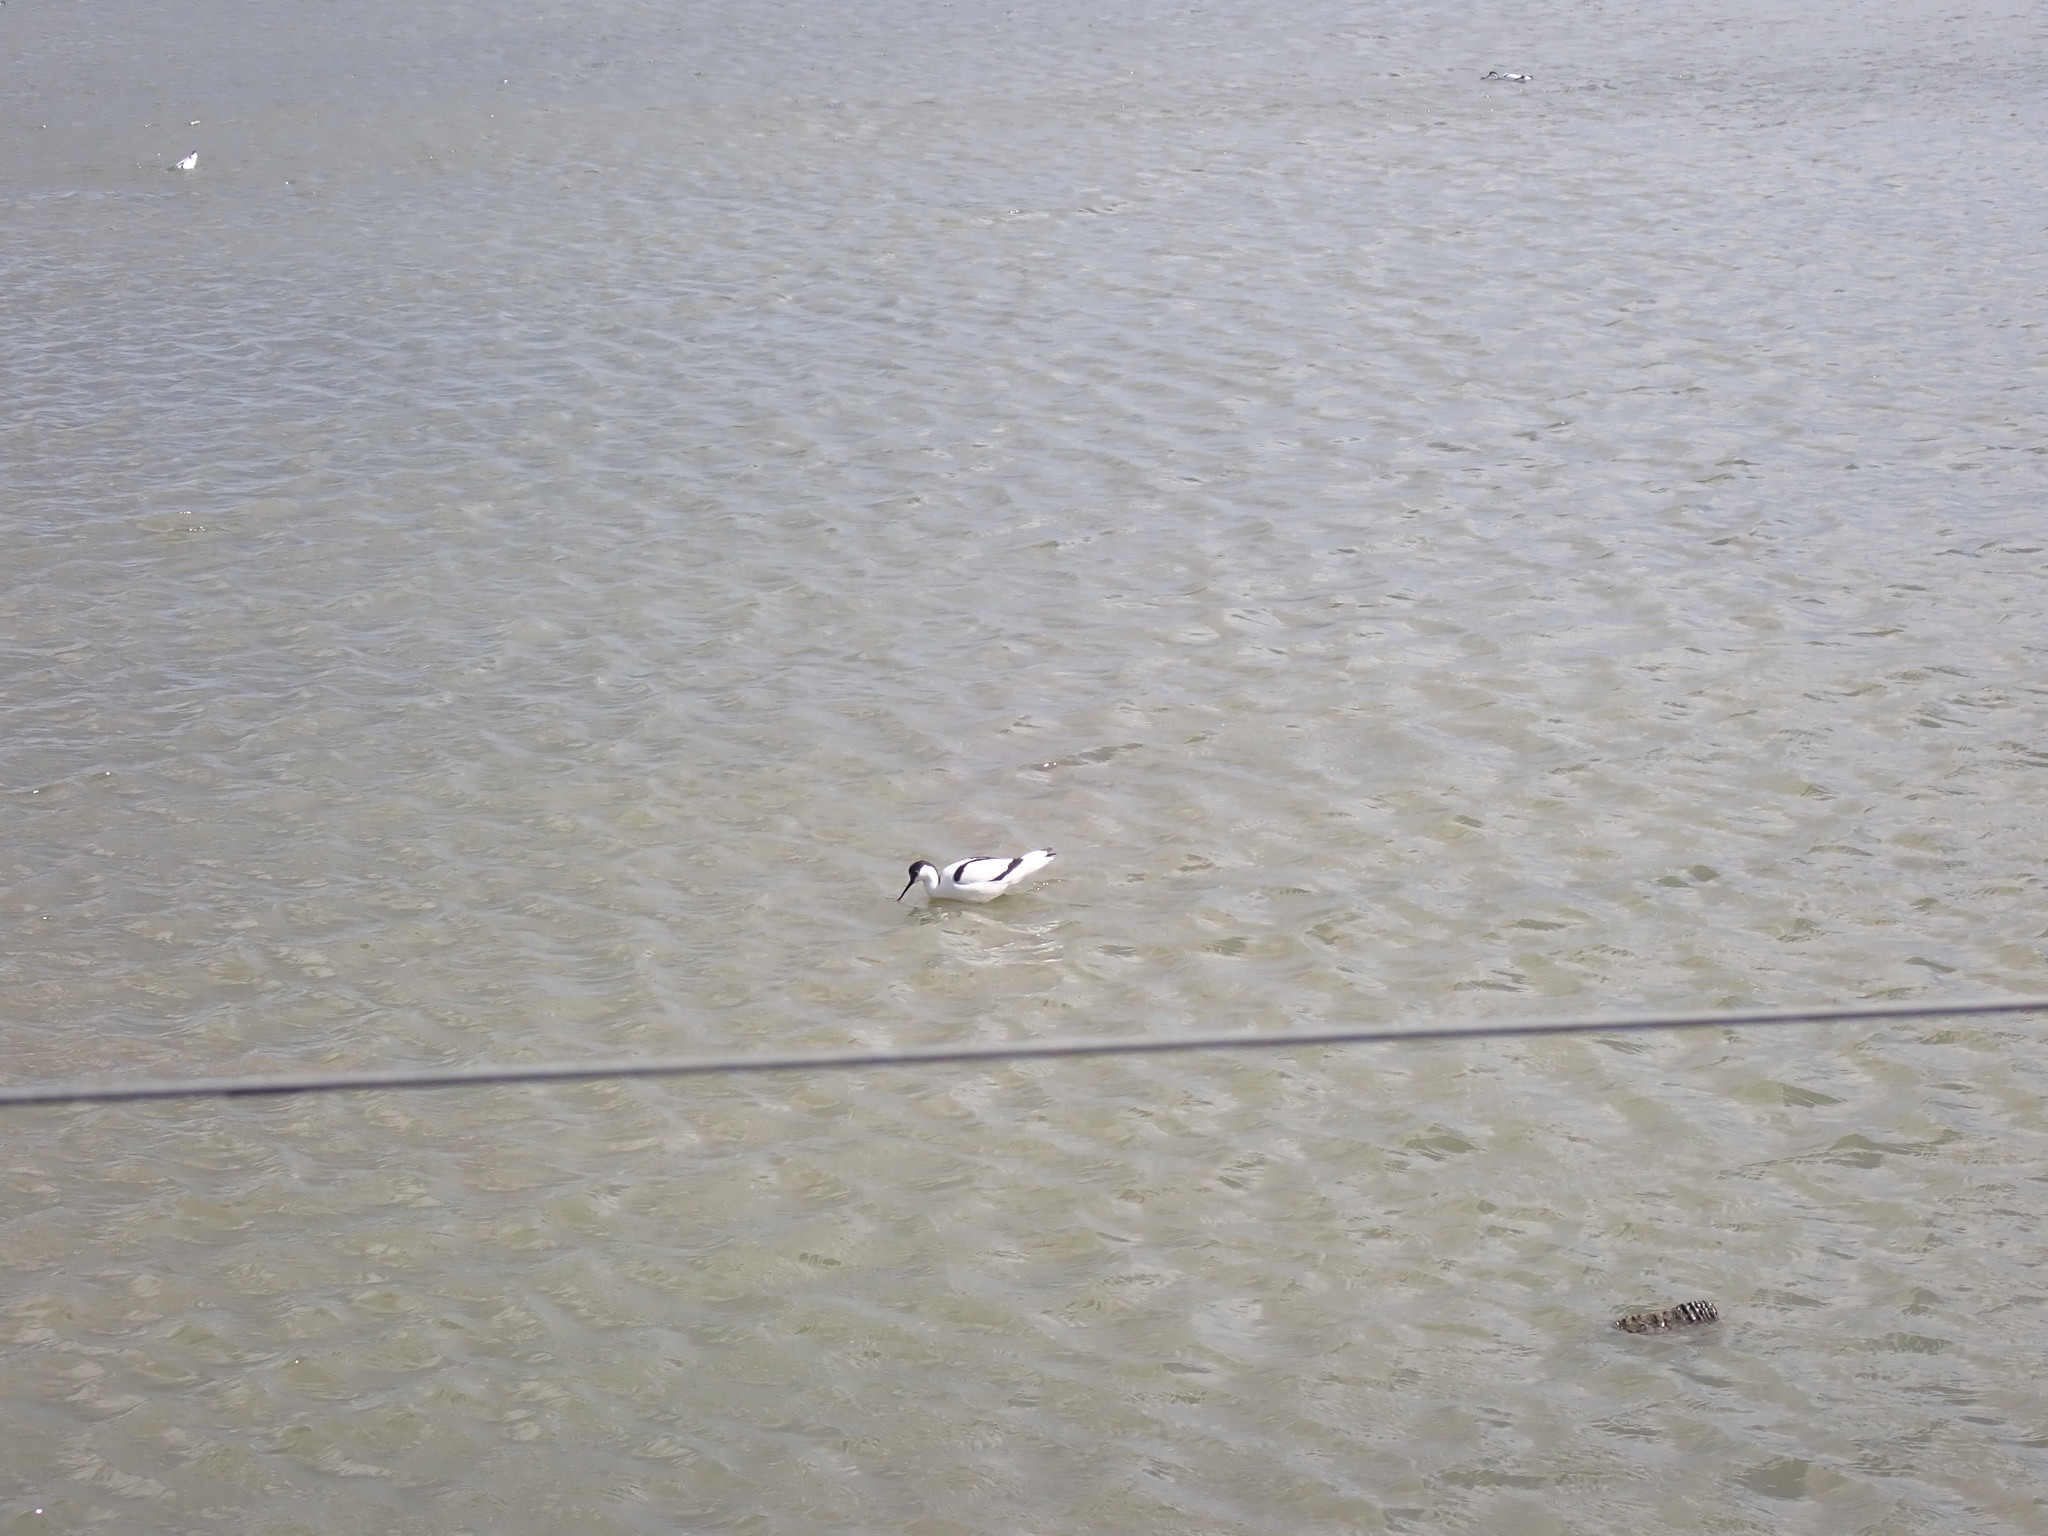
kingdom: Animalia
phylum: Chordata
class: Aves
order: Charadriiformes
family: Recurvirostridae
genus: Recurvirostra
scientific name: Recurvirostra avosetta
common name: Pied avocet
